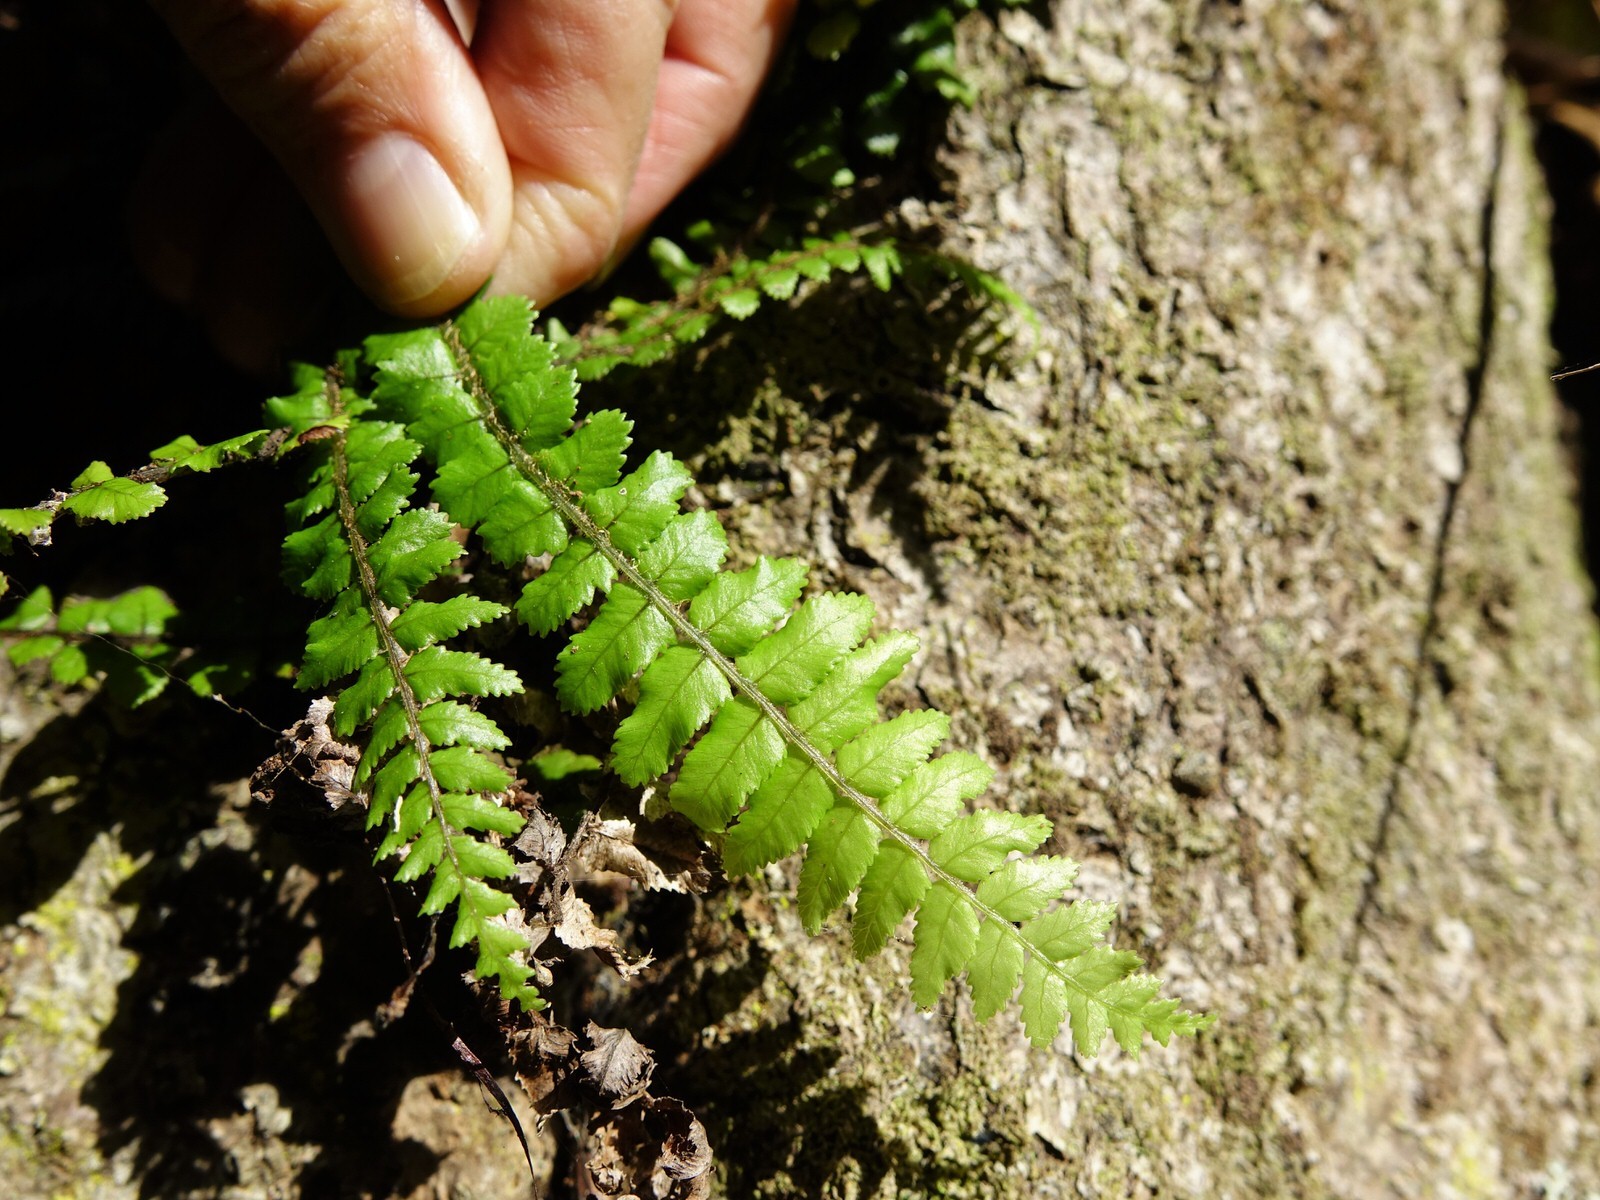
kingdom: Plantae
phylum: Tracheophyta
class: Polypodiopsida
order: Polypodiales
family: Blechnaceae
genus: Icarus
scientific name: Icarus filiformis
